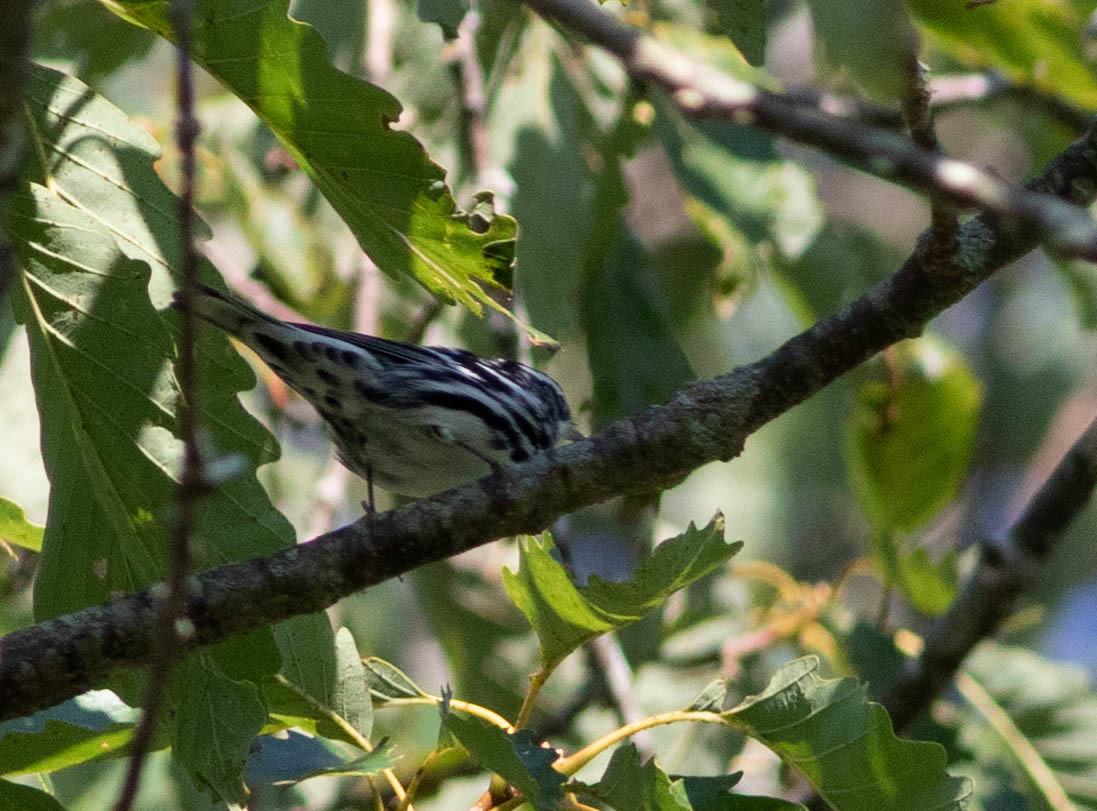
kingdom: Animalia
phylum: Chordata
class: Aves
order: Passeriformes
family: Parulidae
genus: Mniotilta
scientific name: Mniotilta varia
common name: Black-and-white warbler
